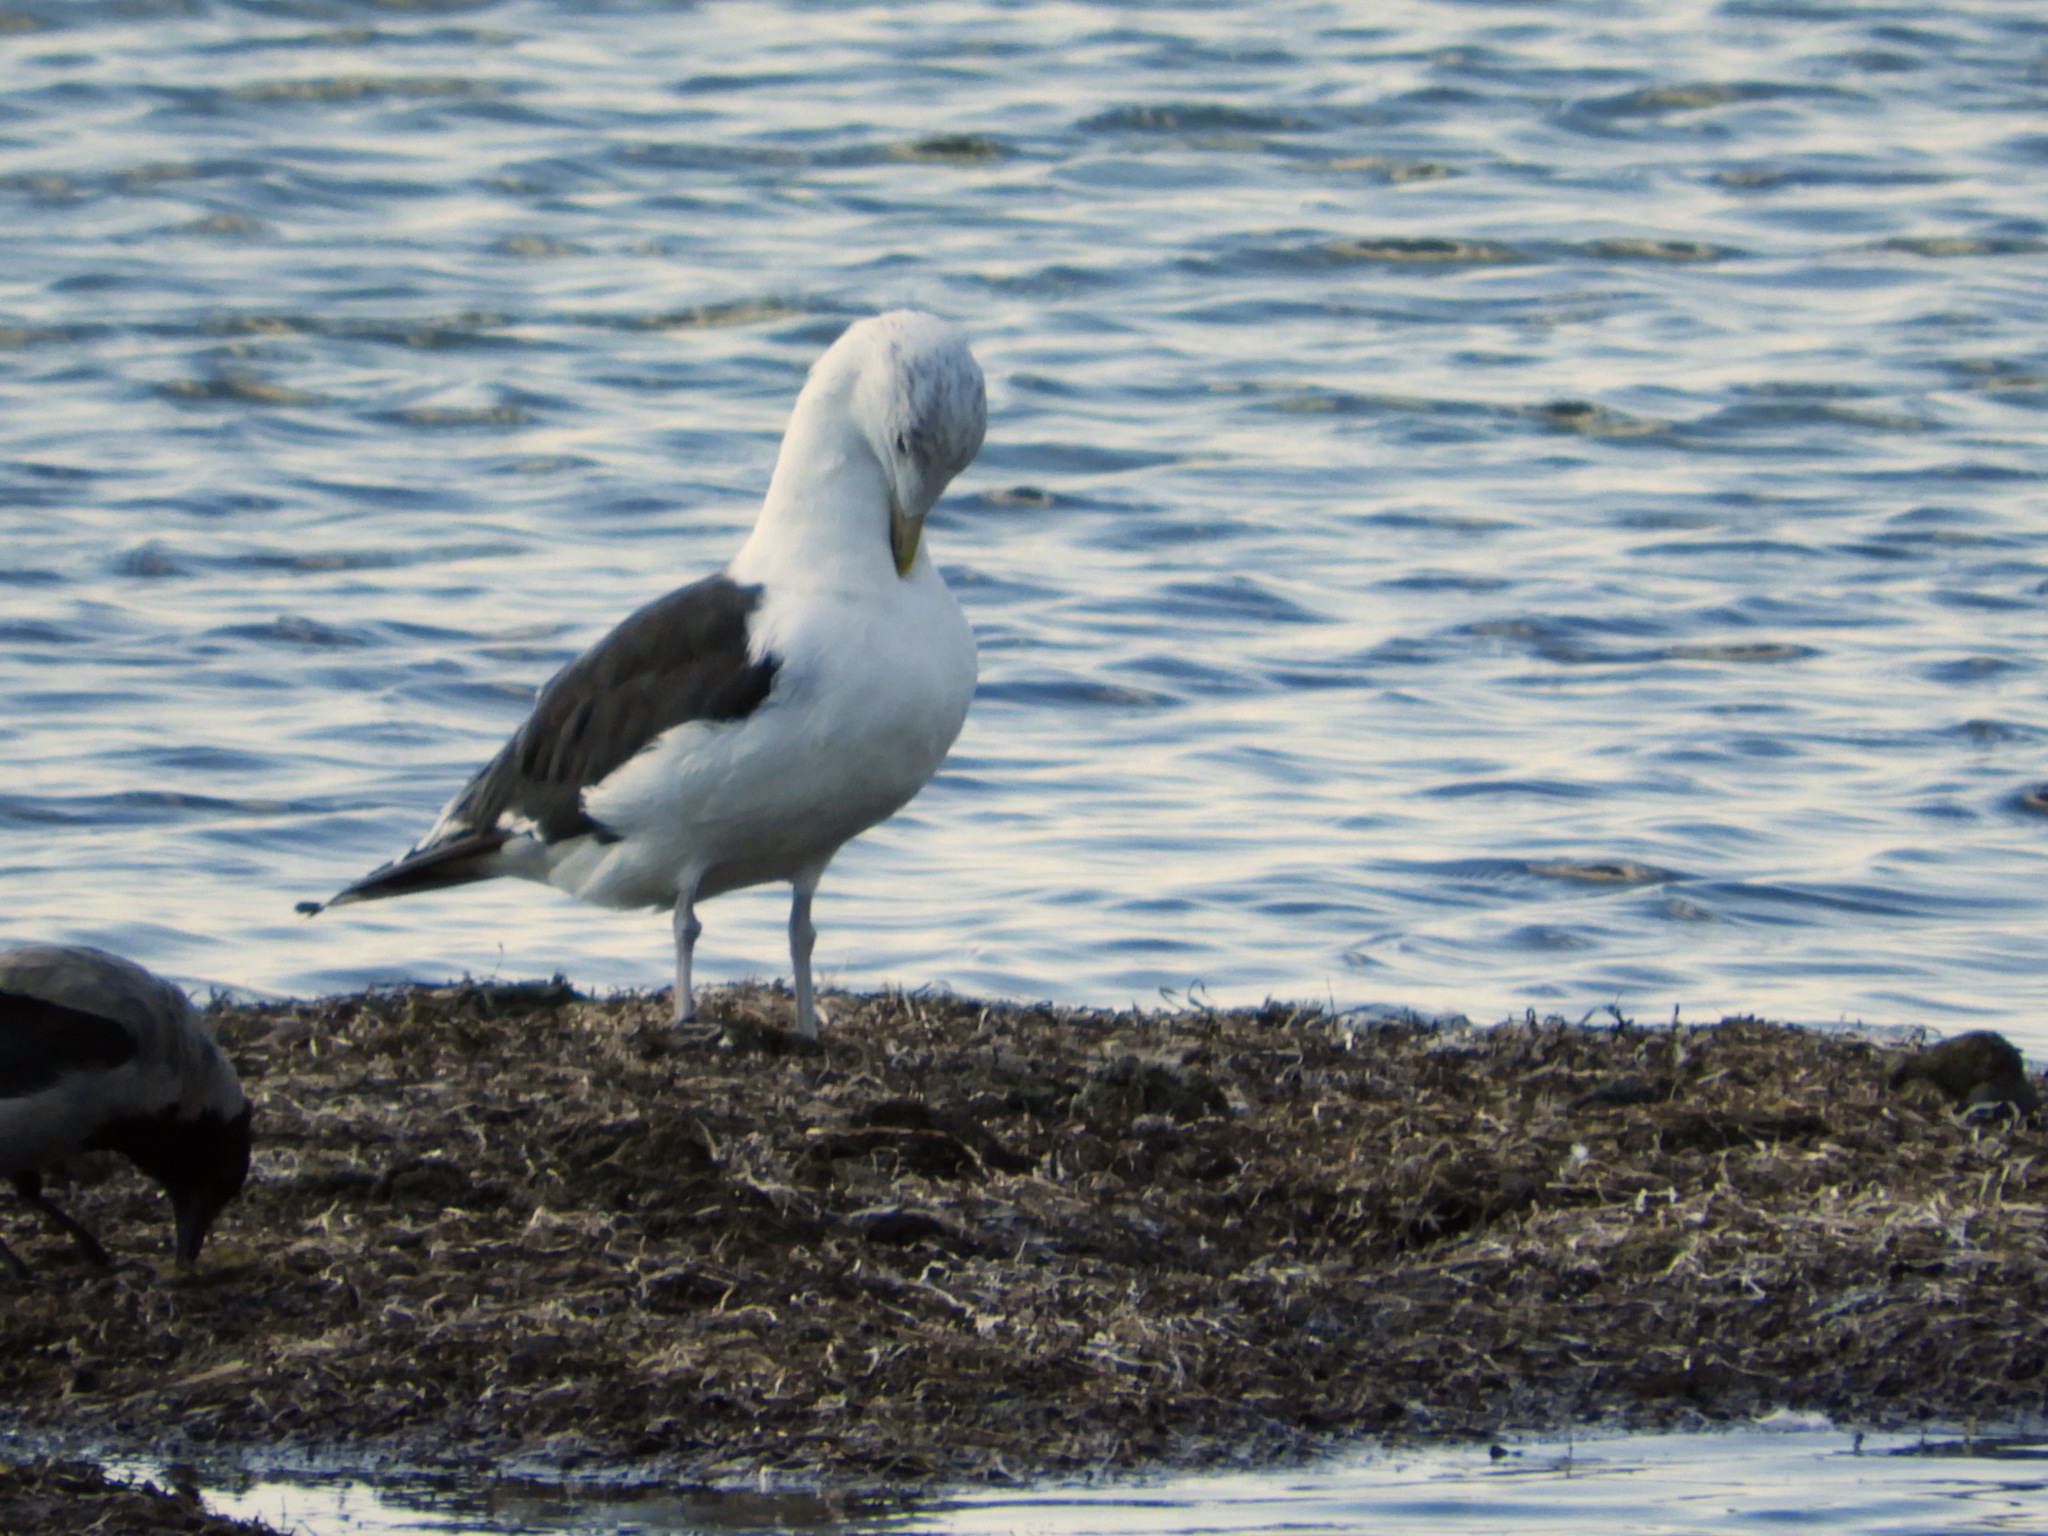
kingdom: Animalia
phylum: Chordata
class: Aves
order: Charadriiformes
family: Laridae
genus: Larus
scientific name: Larus marinus
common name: Great black-backed gull
